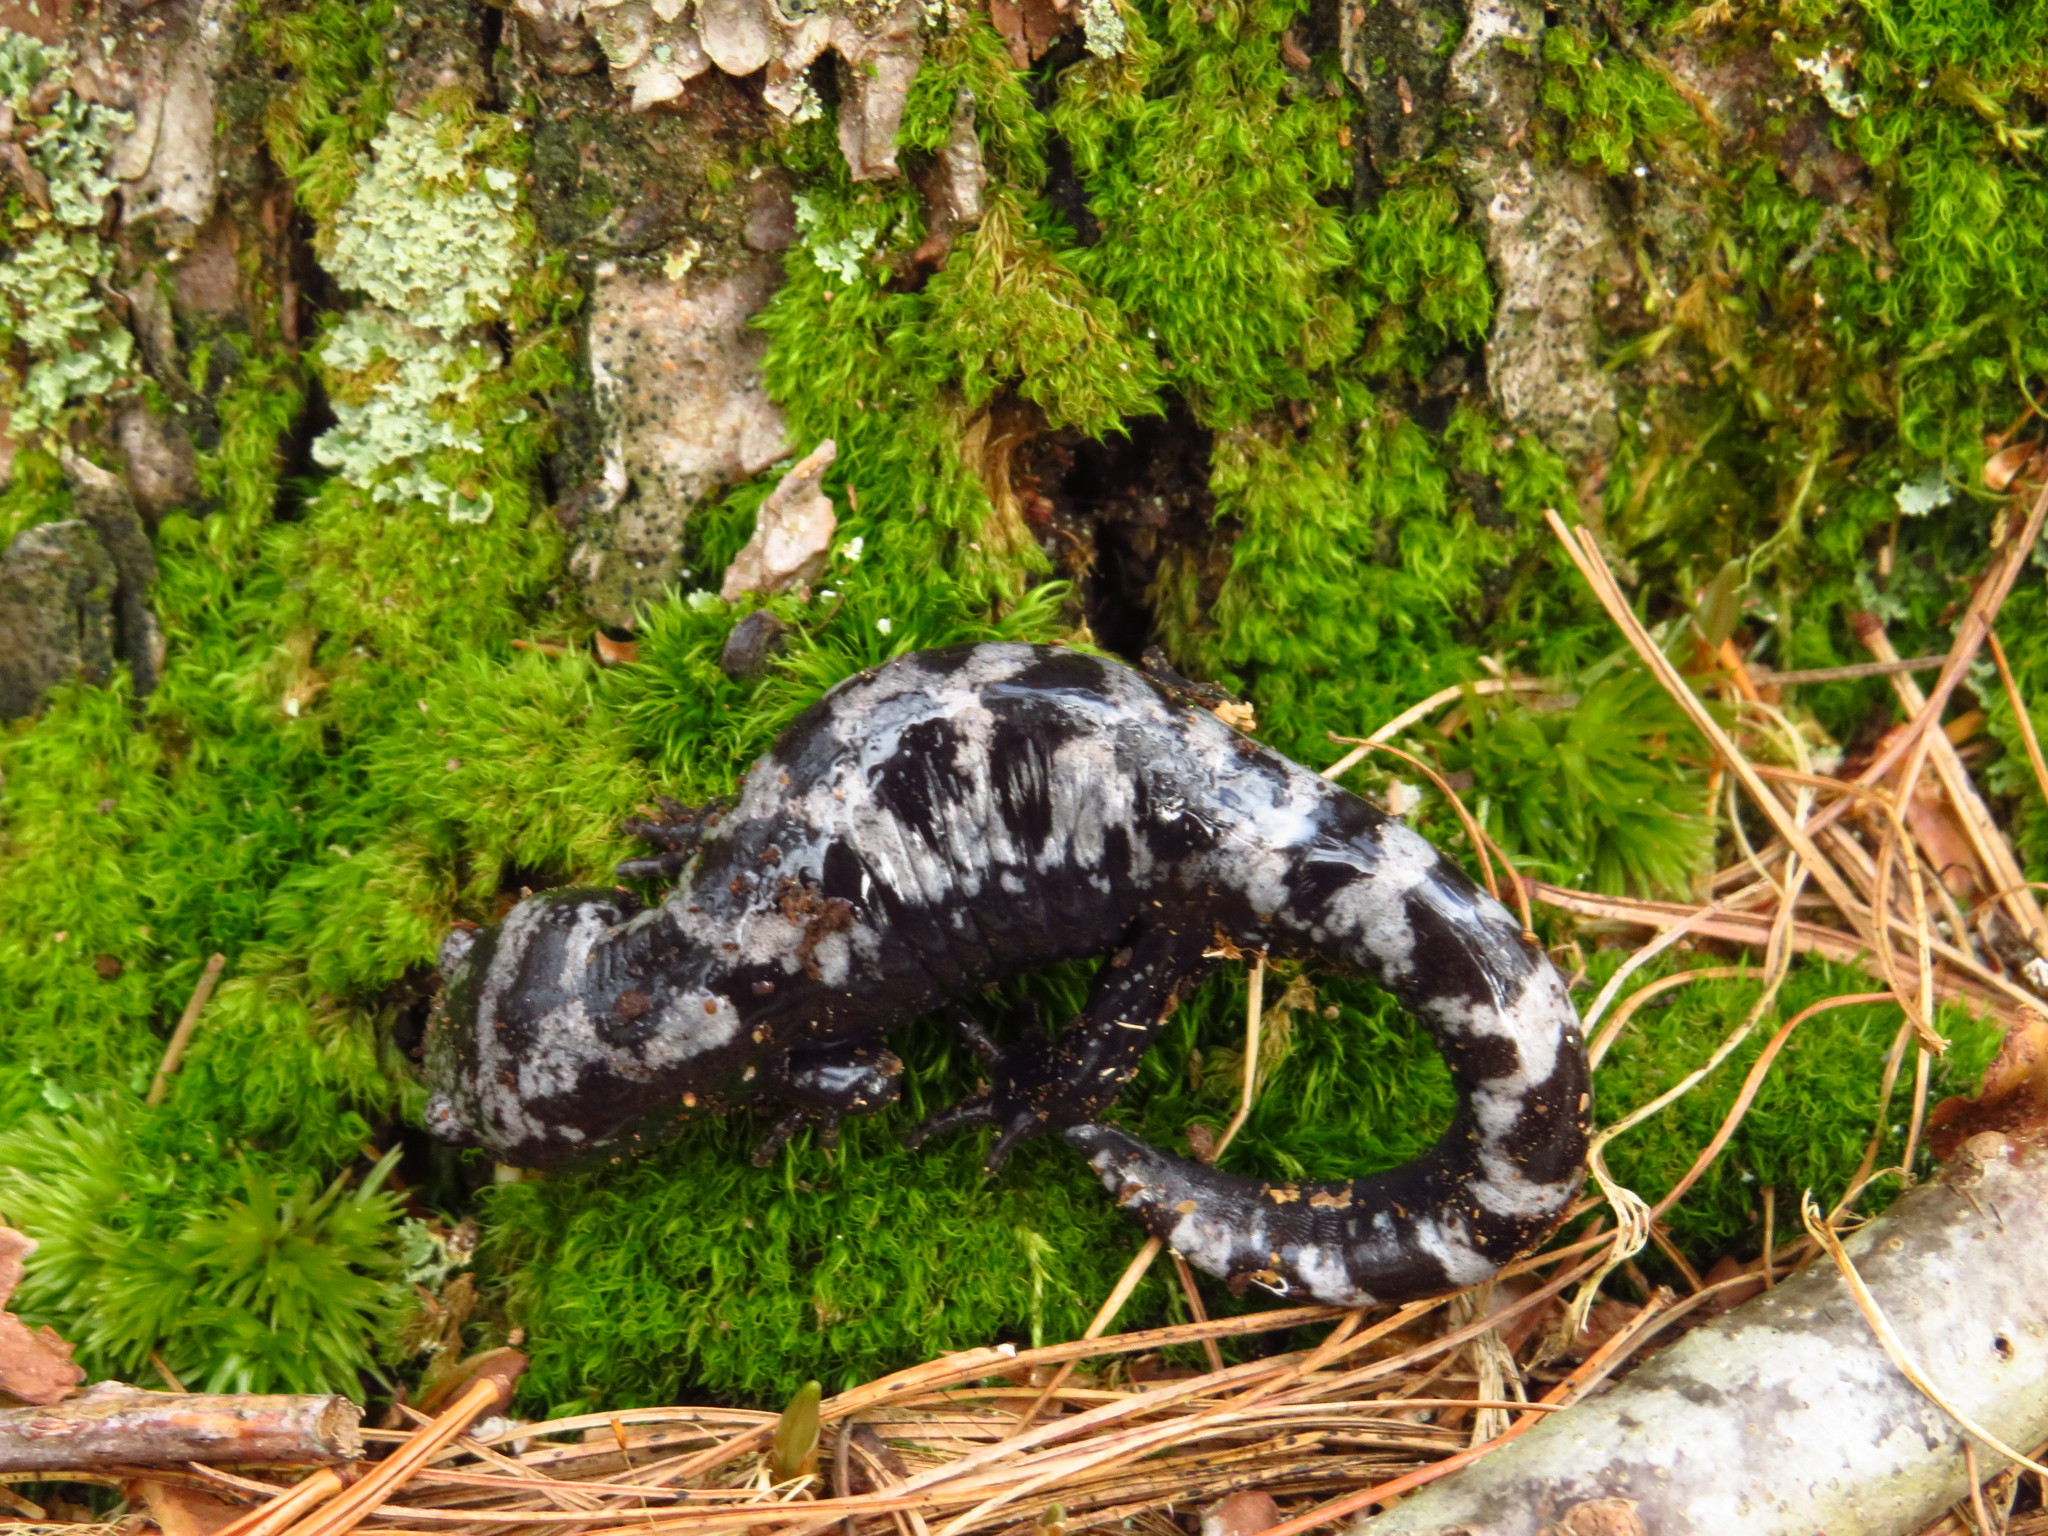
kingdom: Animalia
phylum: Chordata
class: Amphibia
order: Caudata
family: Ambystomatidae
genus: Ambystoma
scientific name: Ambystoma opacum
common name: Marbled salamander
